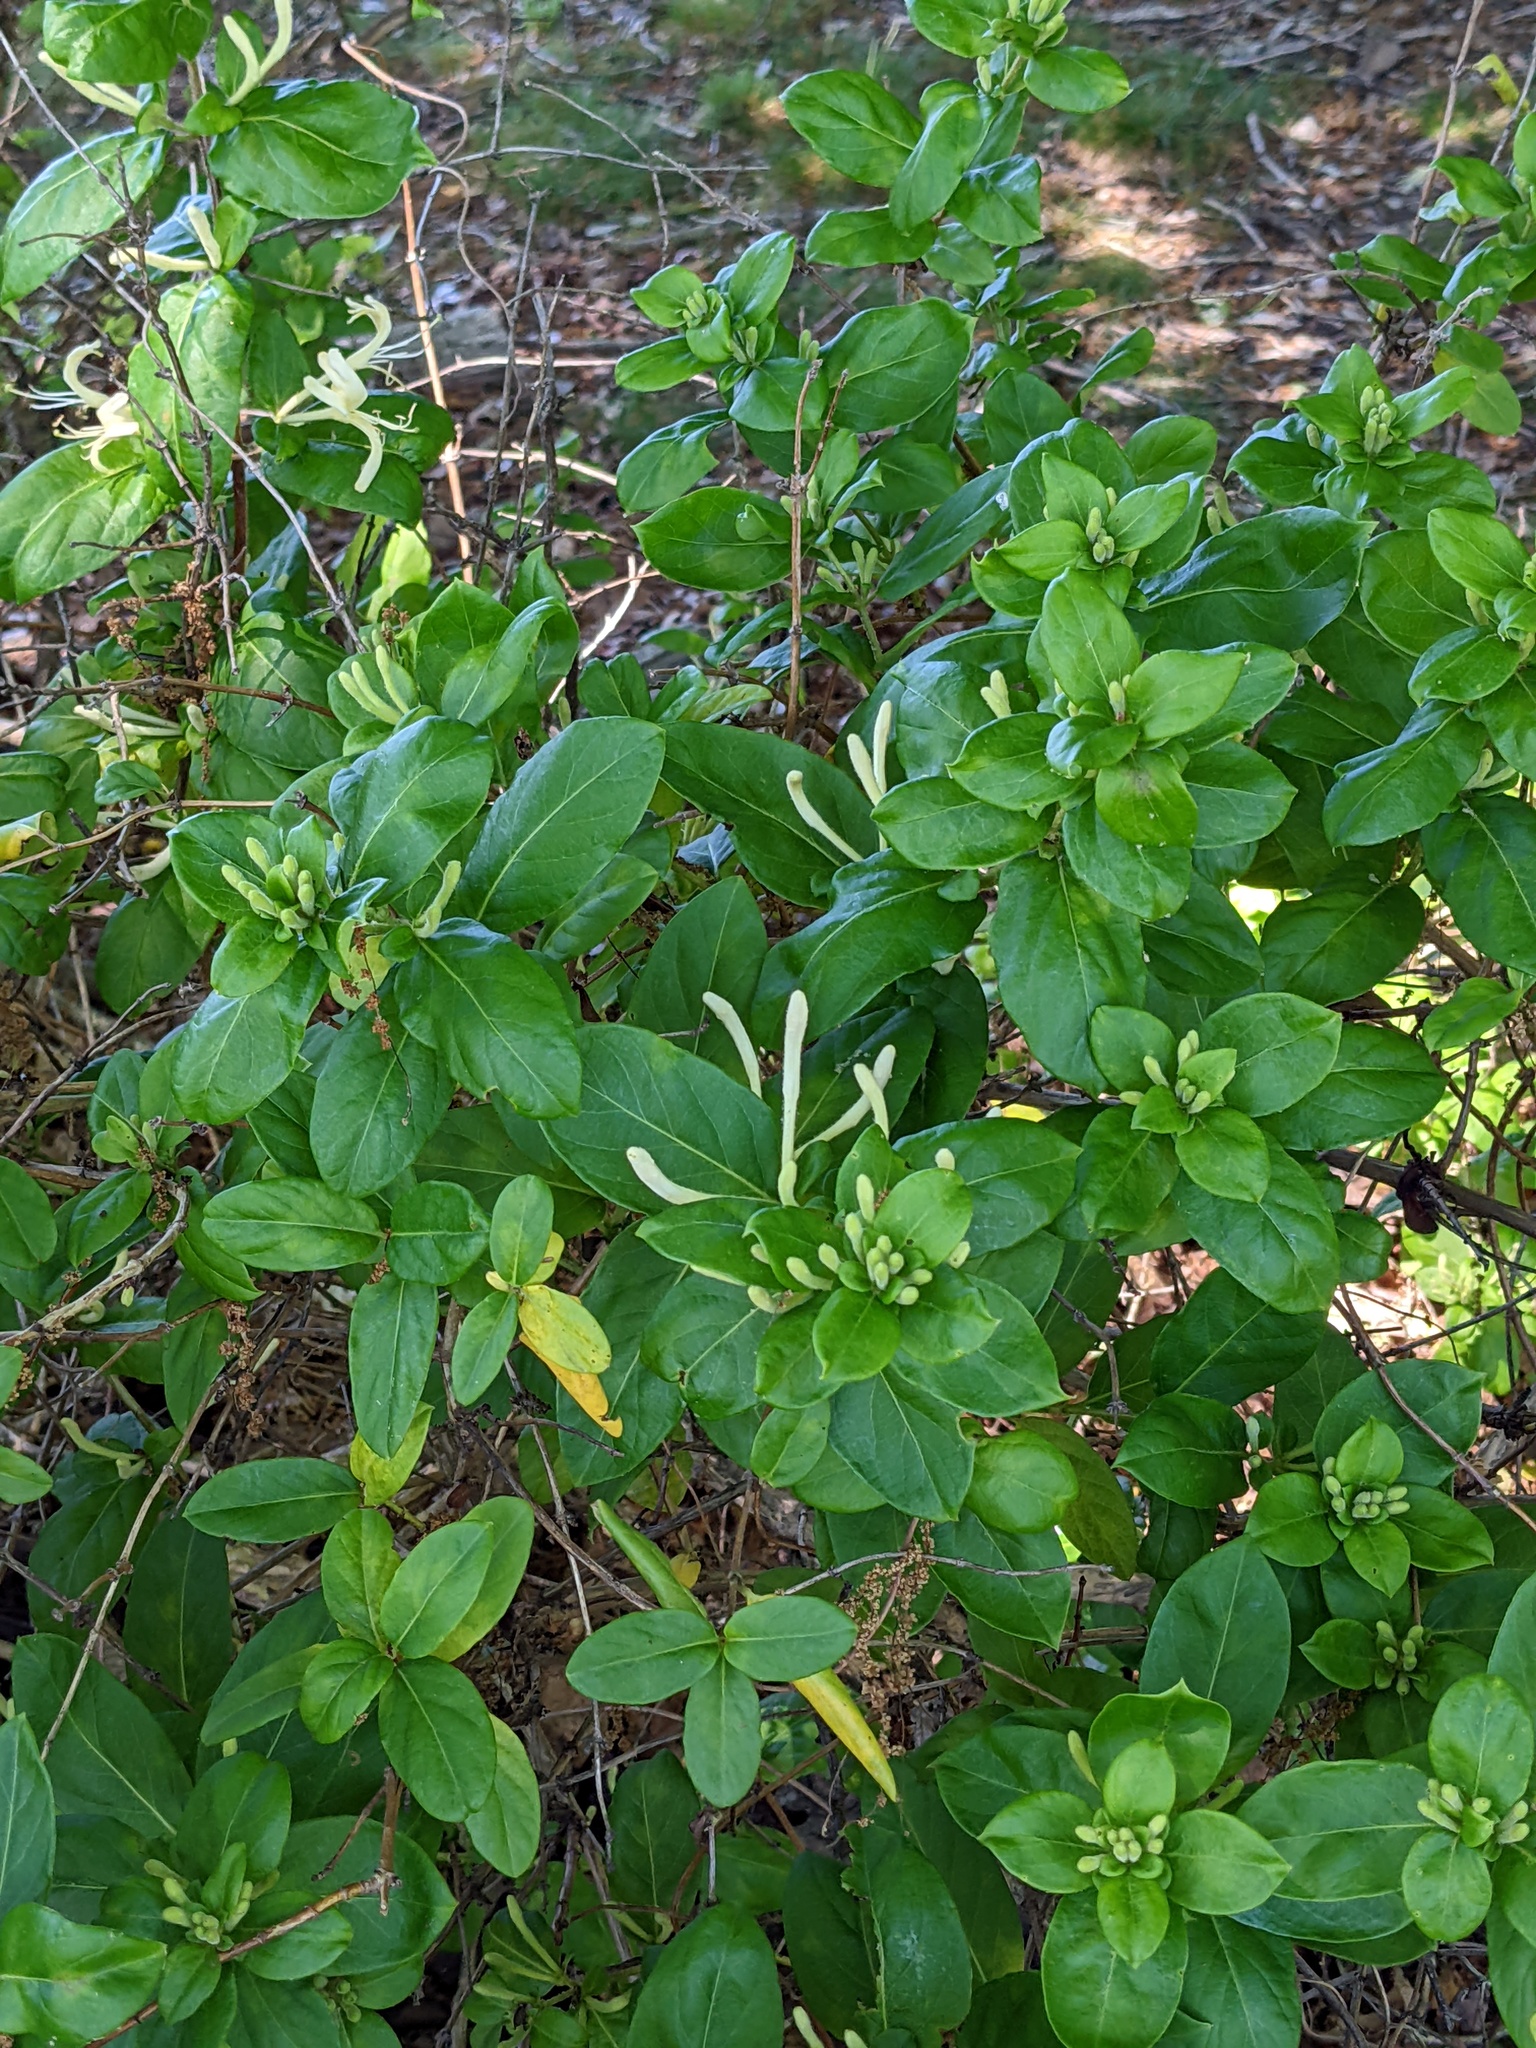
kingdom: Plantae
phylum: Tracheophyta
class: Magnoliopsida
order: Dipsacales
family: Caprifoliaceae
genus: Lonicera
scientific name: Lonicera japonica
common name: Japanese honeysuckle
